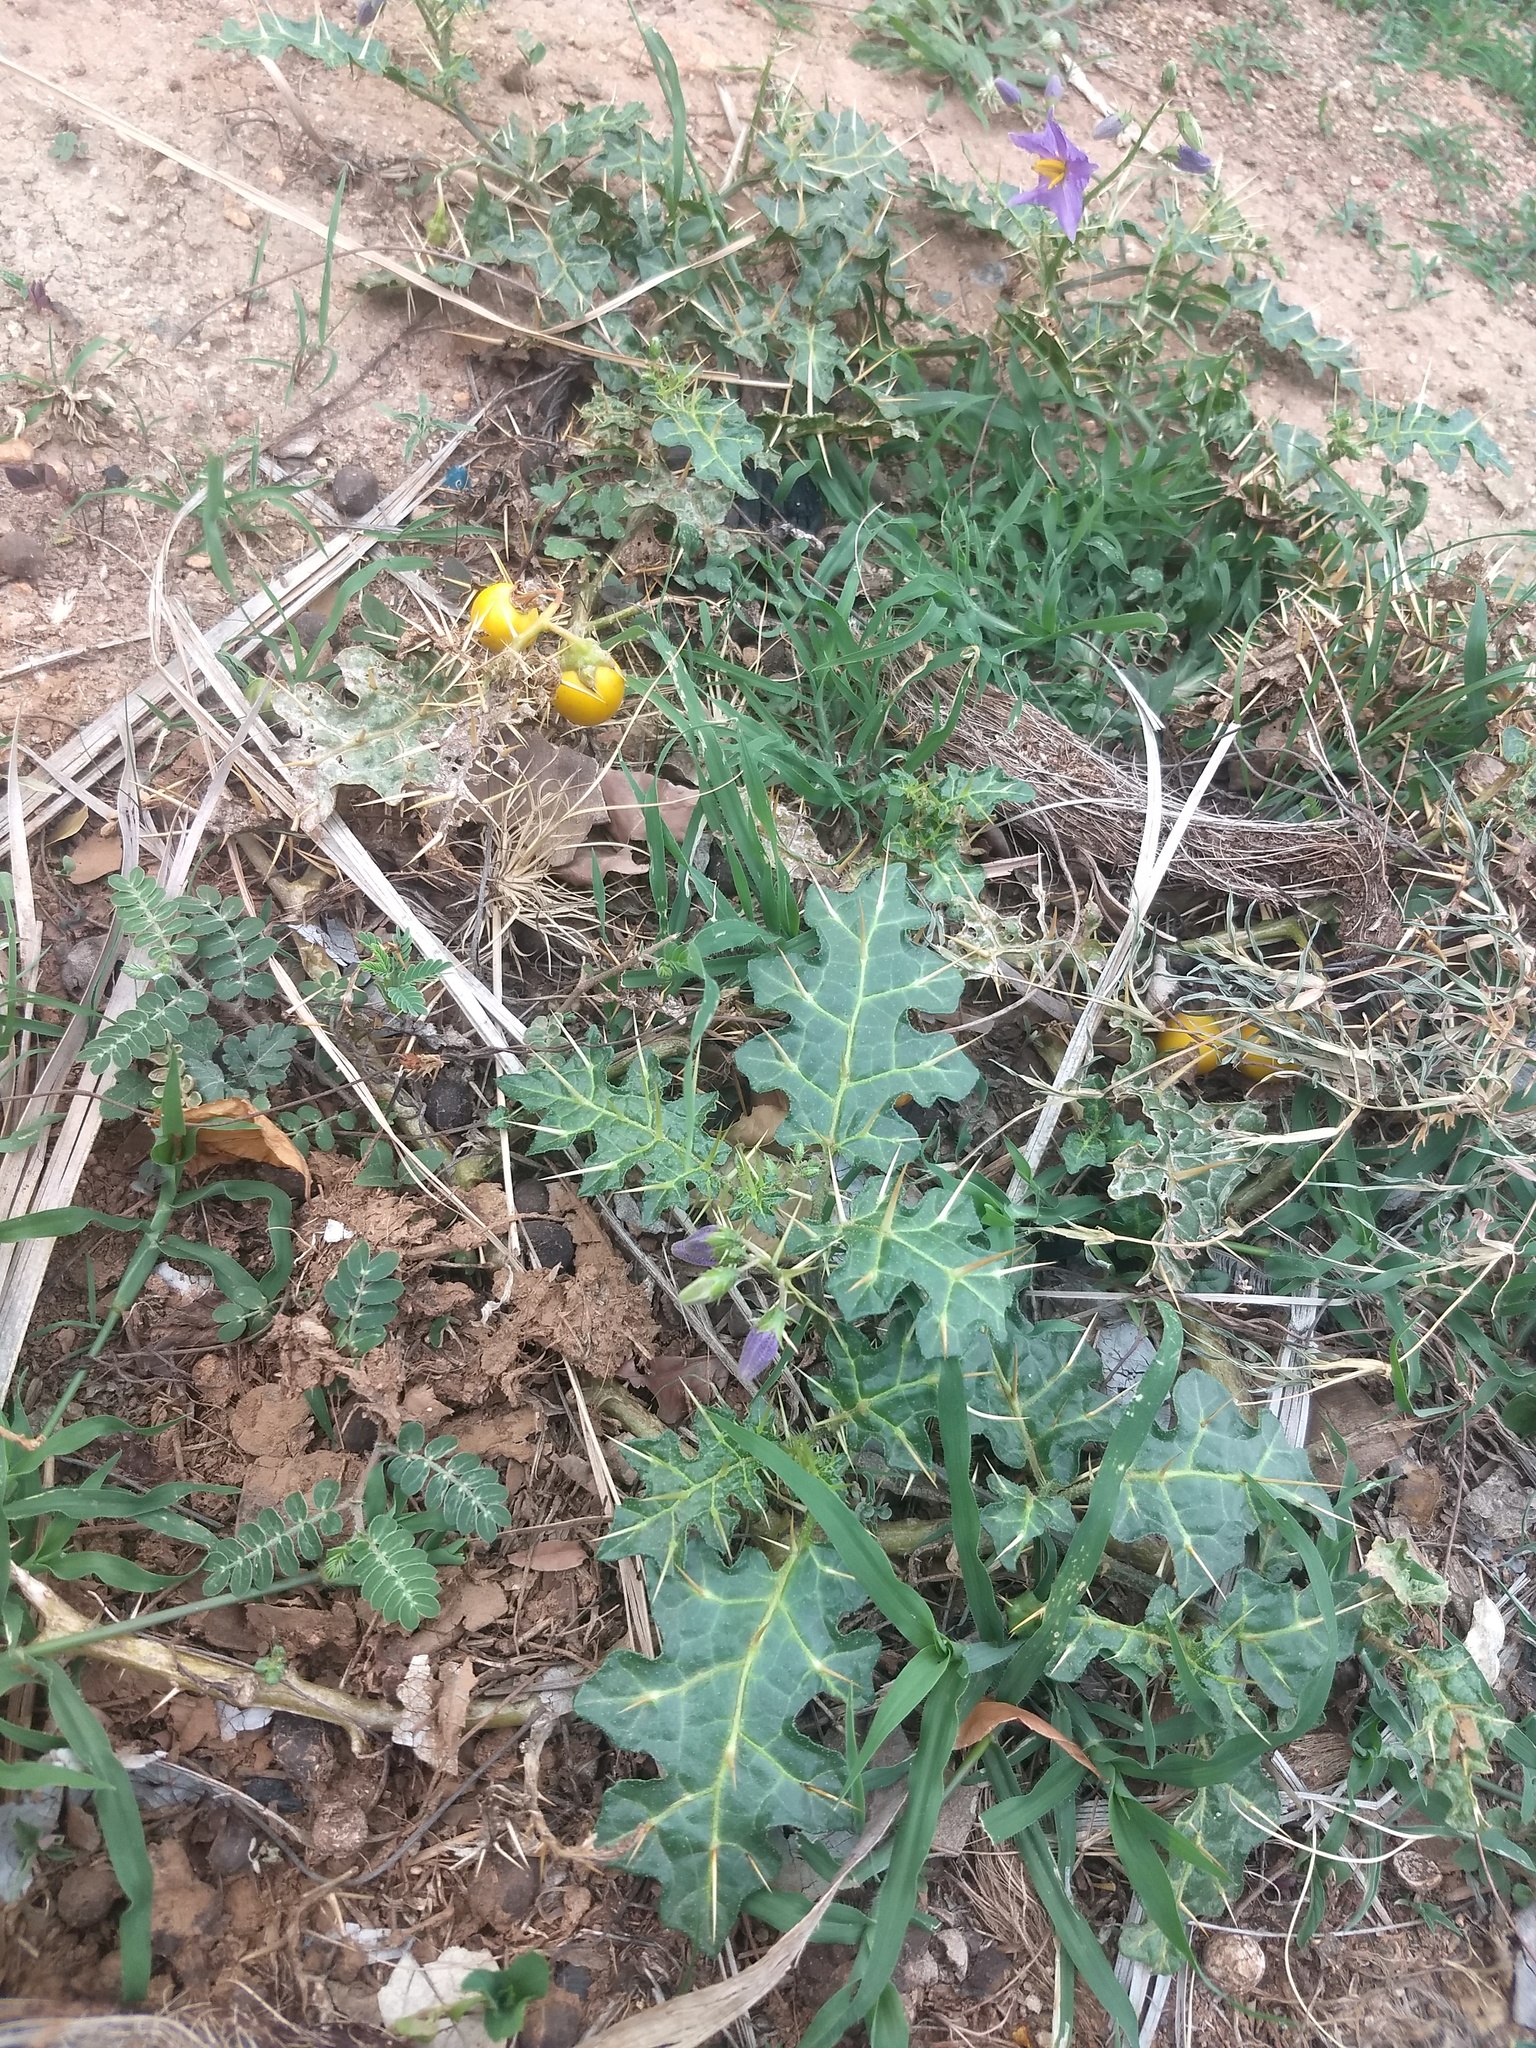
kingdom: Plantae
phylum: Tracheophyta
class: Magnoliopsida
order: Solanales
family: Solanaceae
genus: Solanum
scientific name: Solanum virginianum
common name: Surattense nightshade
